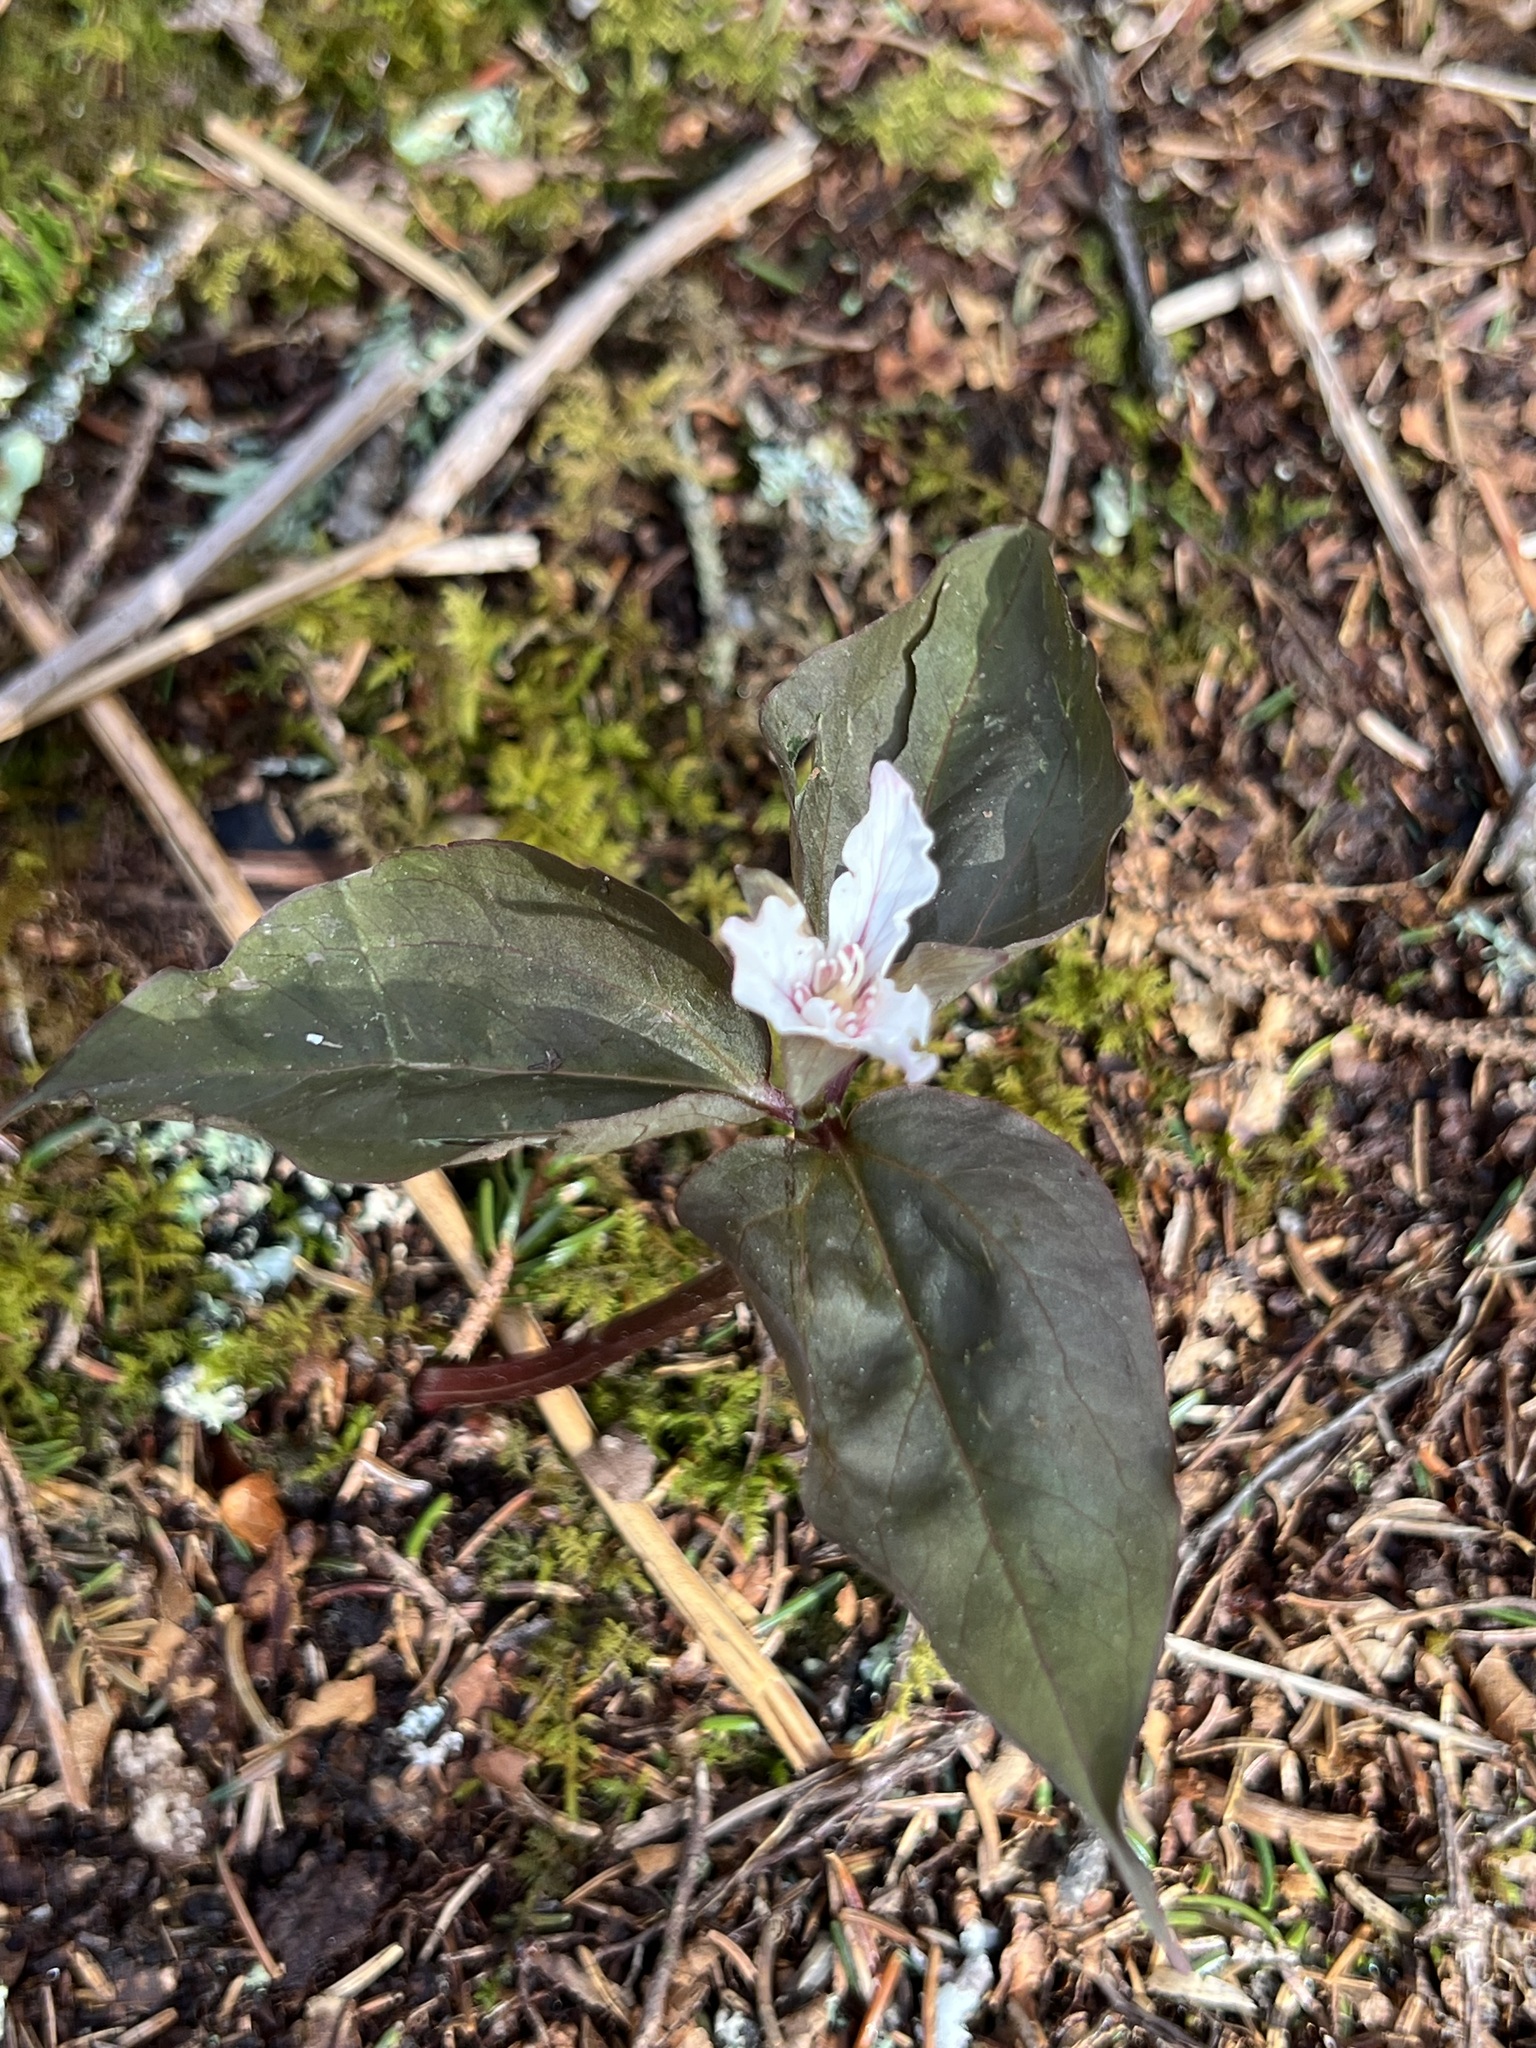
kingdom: Plantae
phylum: Tracheophyta
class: Liliopsida
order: Liliales
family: Melanthiaceae
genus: Trillium
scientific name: Trillium undulatum
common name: Paint trillium
